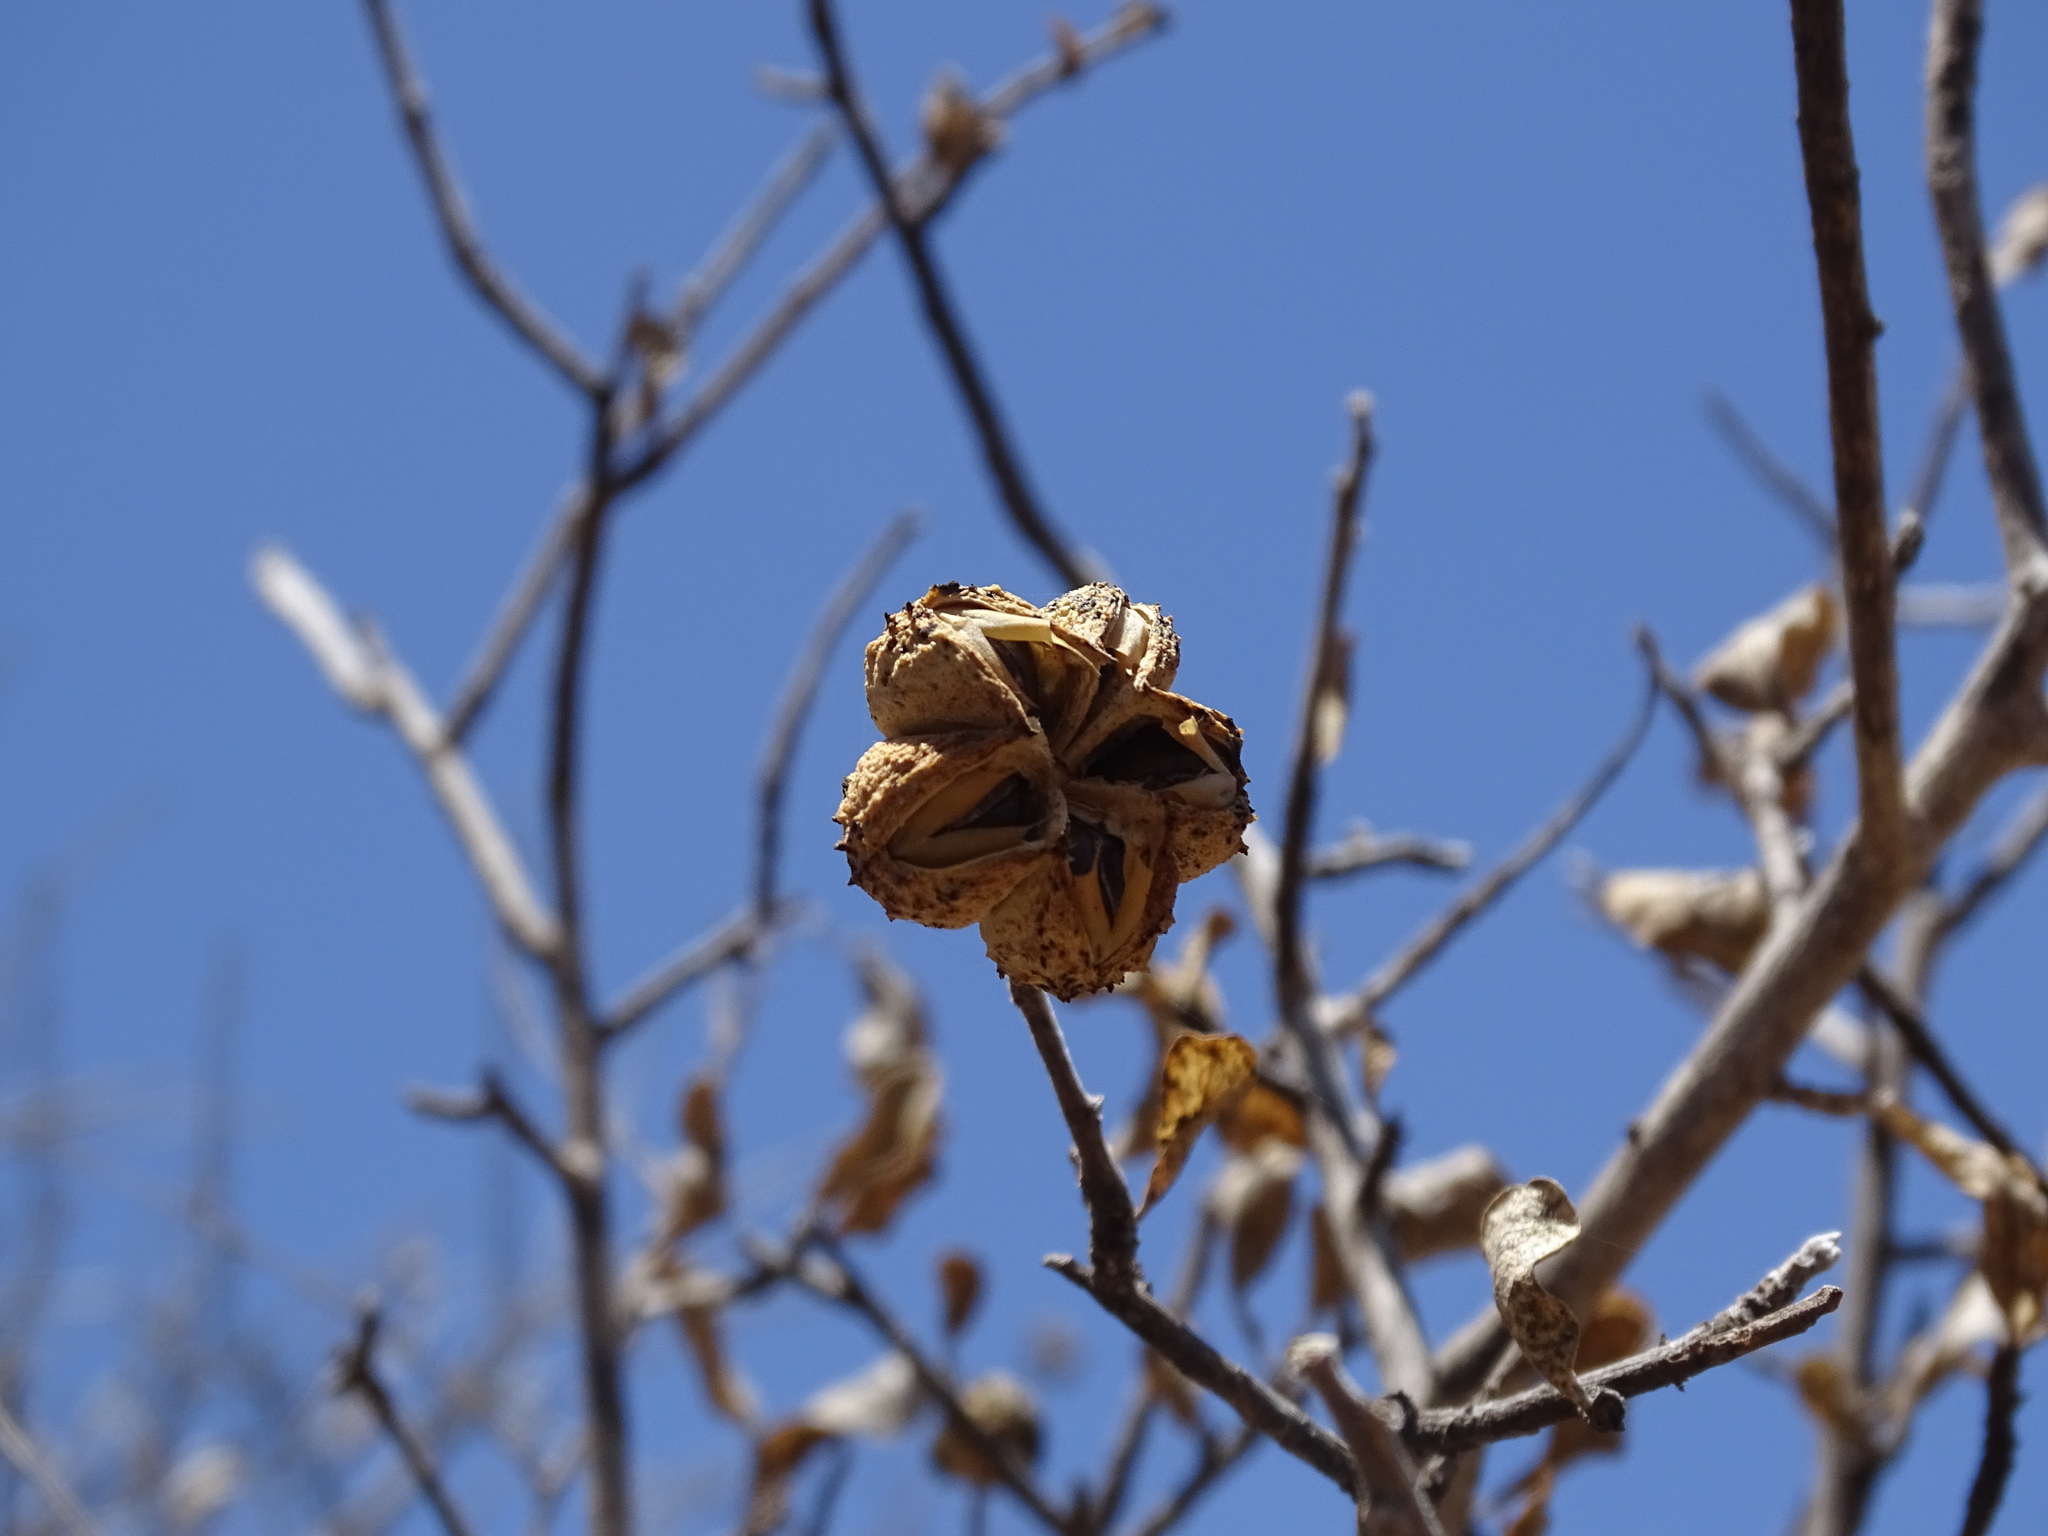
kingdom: Plantae
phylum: Tracheophyta
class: Magnoliopsida
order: Malpighiales
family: Euphorbiaceae
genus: Adelia
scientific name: Adelia brandegeei
